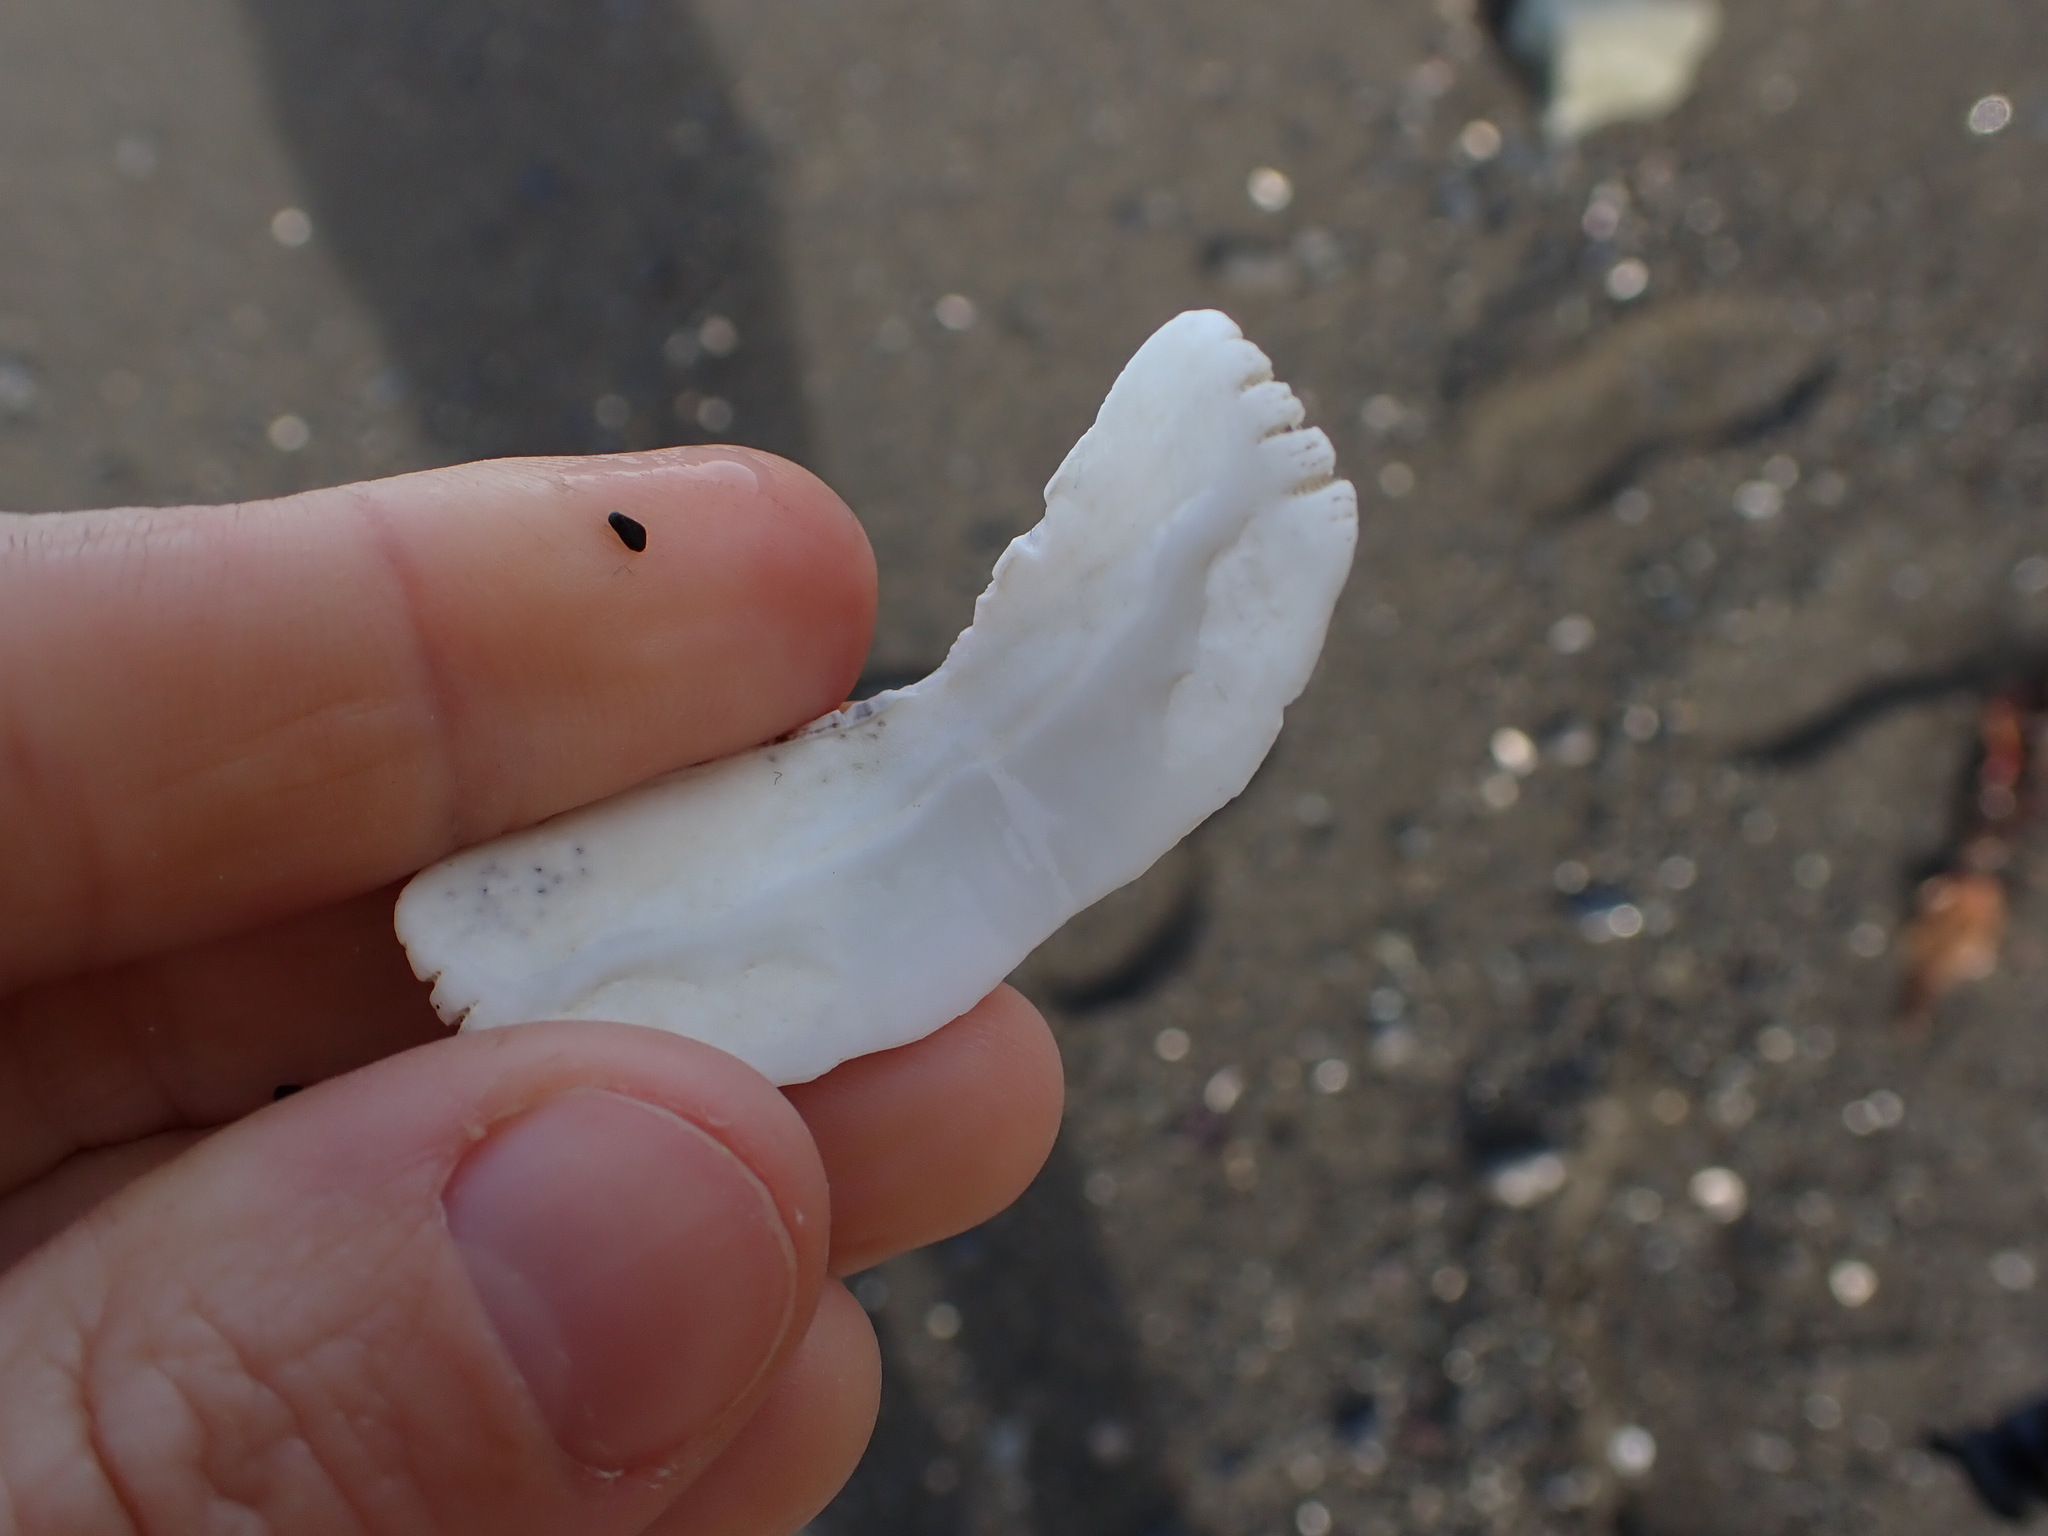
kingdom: Animalia
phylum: Mollusca
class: Polyplacophora
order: Callochitonida
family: Callochitonidae
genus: Eudoxochiton
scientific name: Eudoxochiton nobilis
